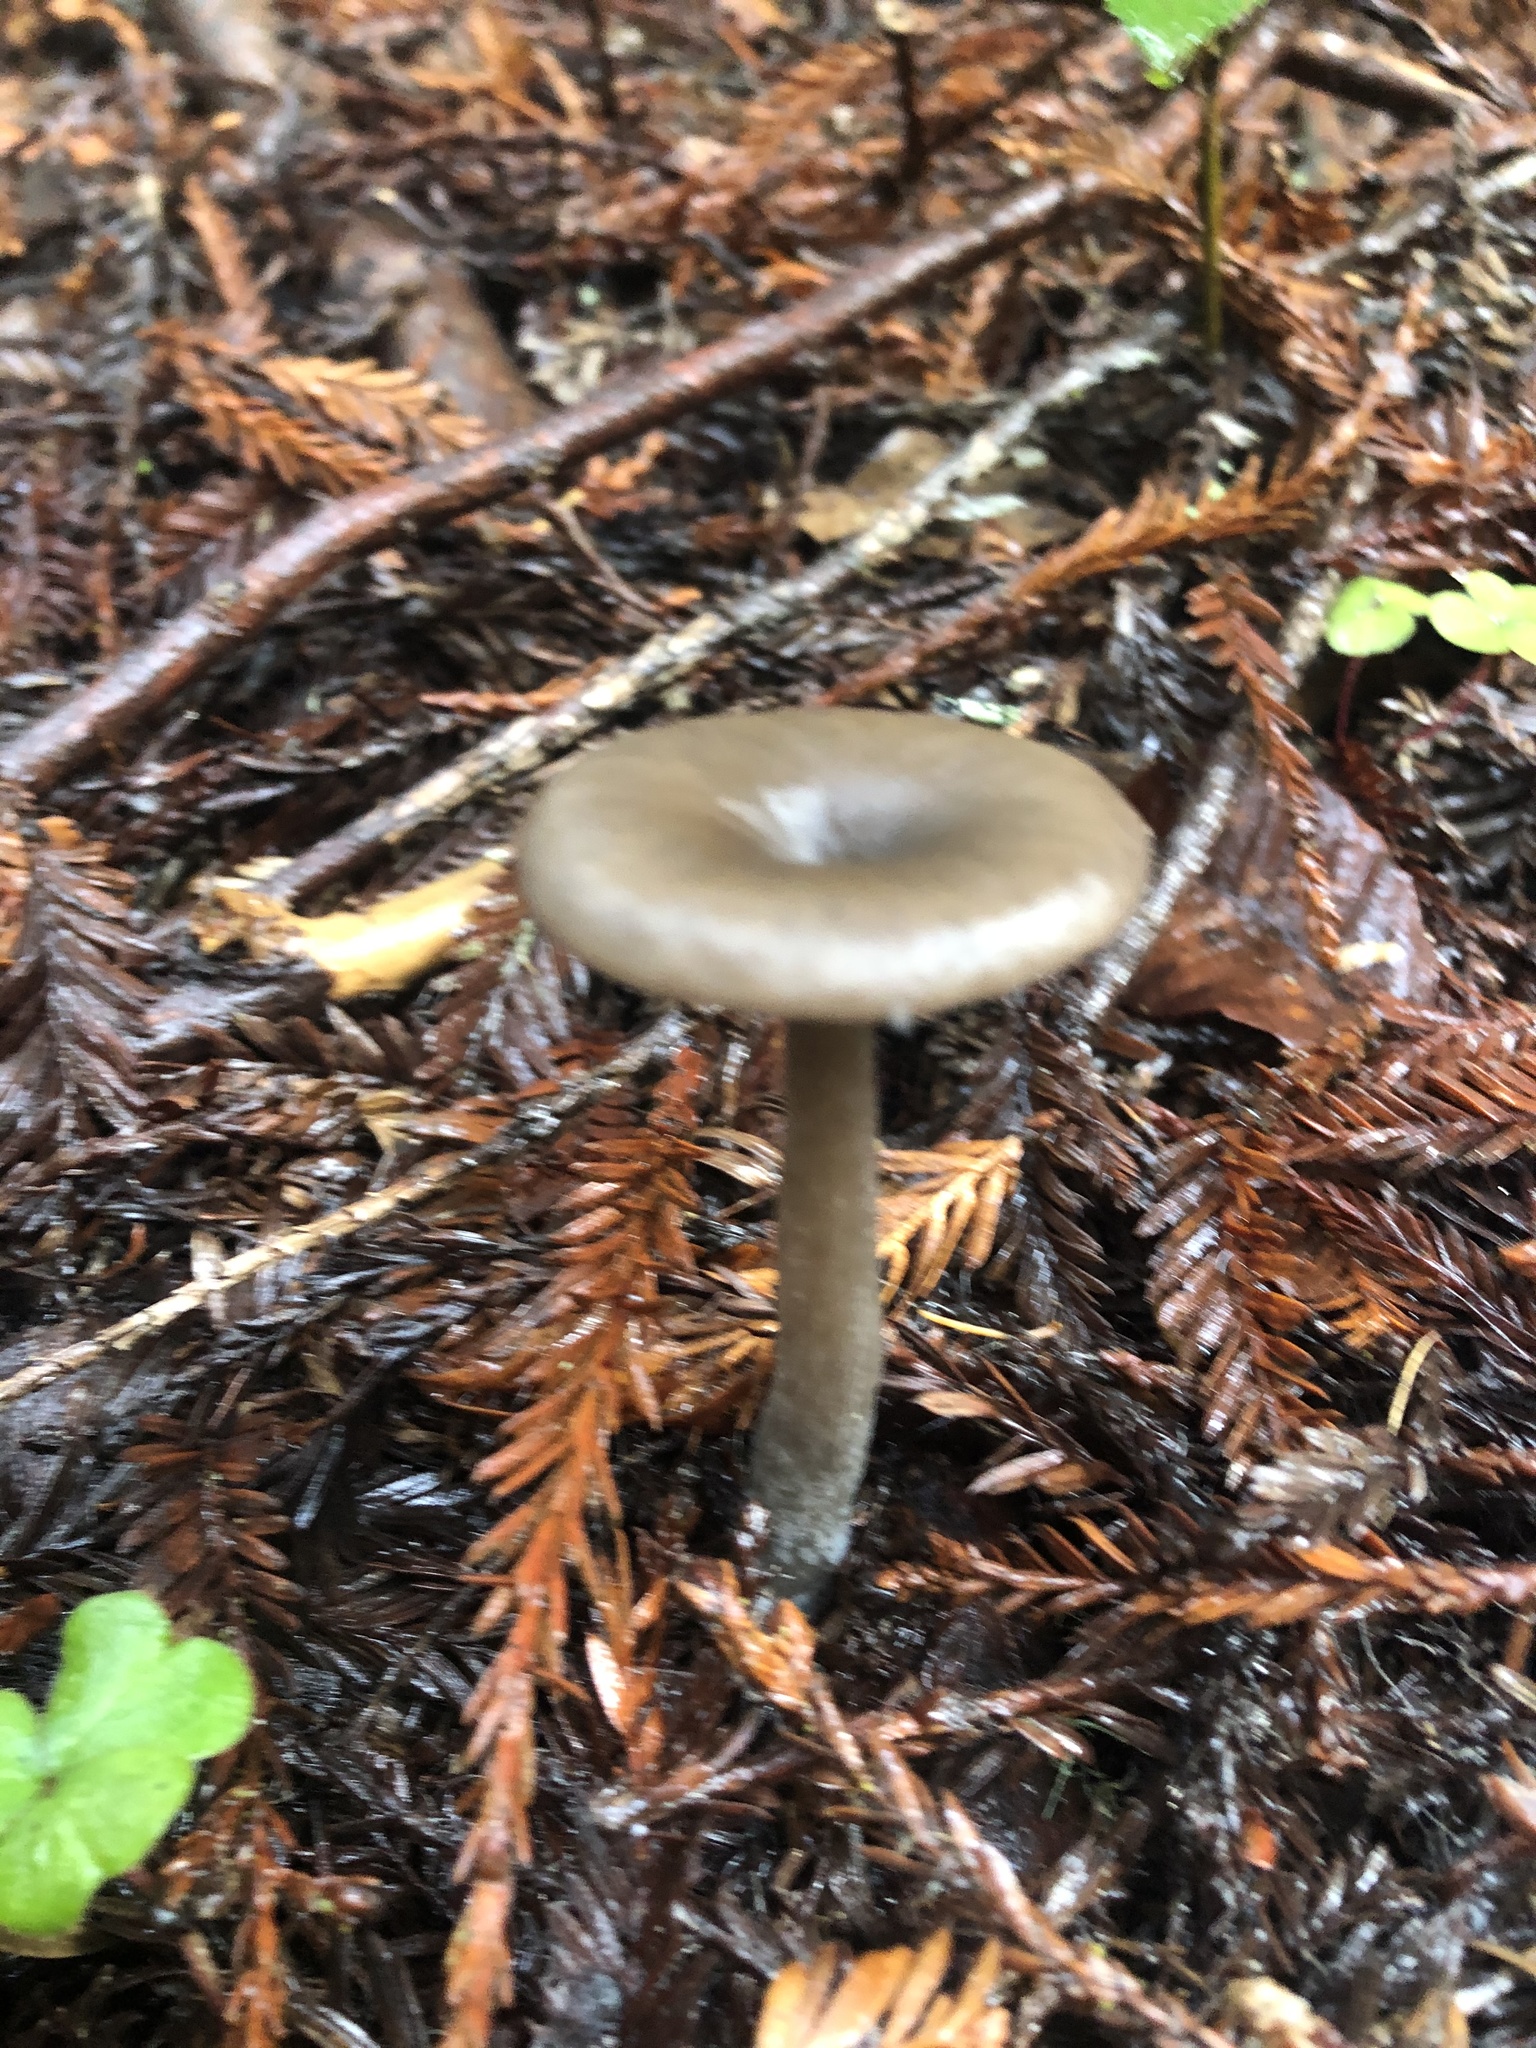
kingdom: Fungi
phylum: Basidiomycota
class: Agaricomycetes
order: Agaricales
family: Pseudoclitocybaceae
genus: Pseudoclitocybe
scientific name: Pseudoclitocybe cyathiformis
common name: Goblet
